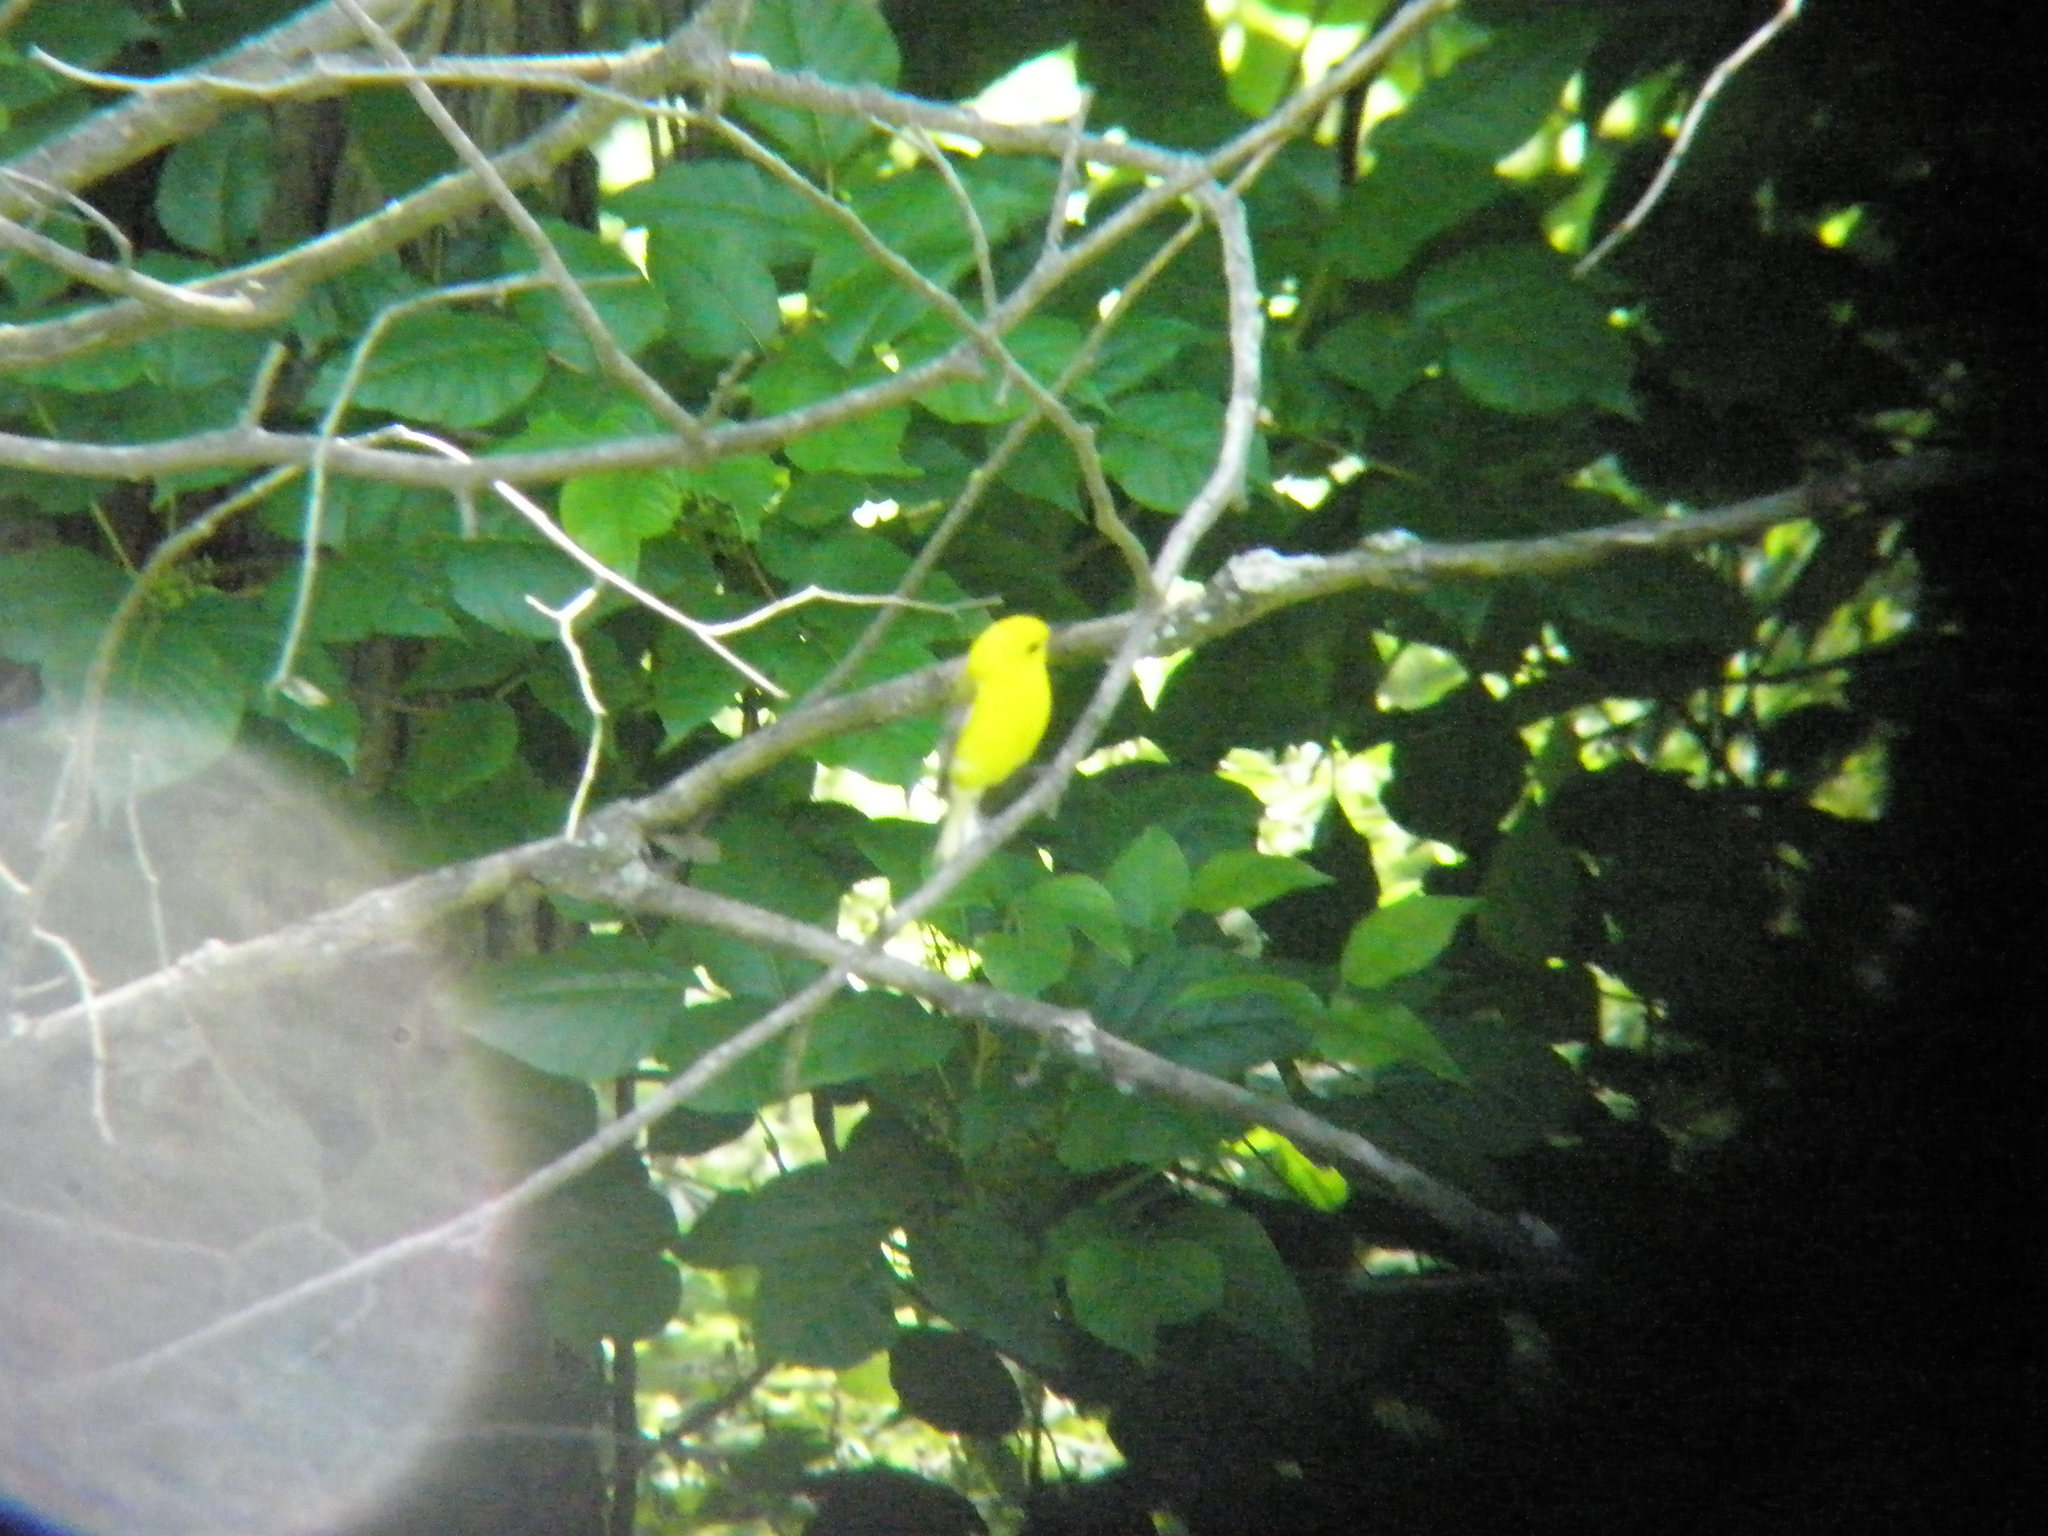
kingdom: Animalia
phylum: Chordata
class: Aves
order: Passeriformes
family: Parulidae
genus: Protonotaria
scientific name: Protonotaria citrea
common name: Prothonotary warbler
